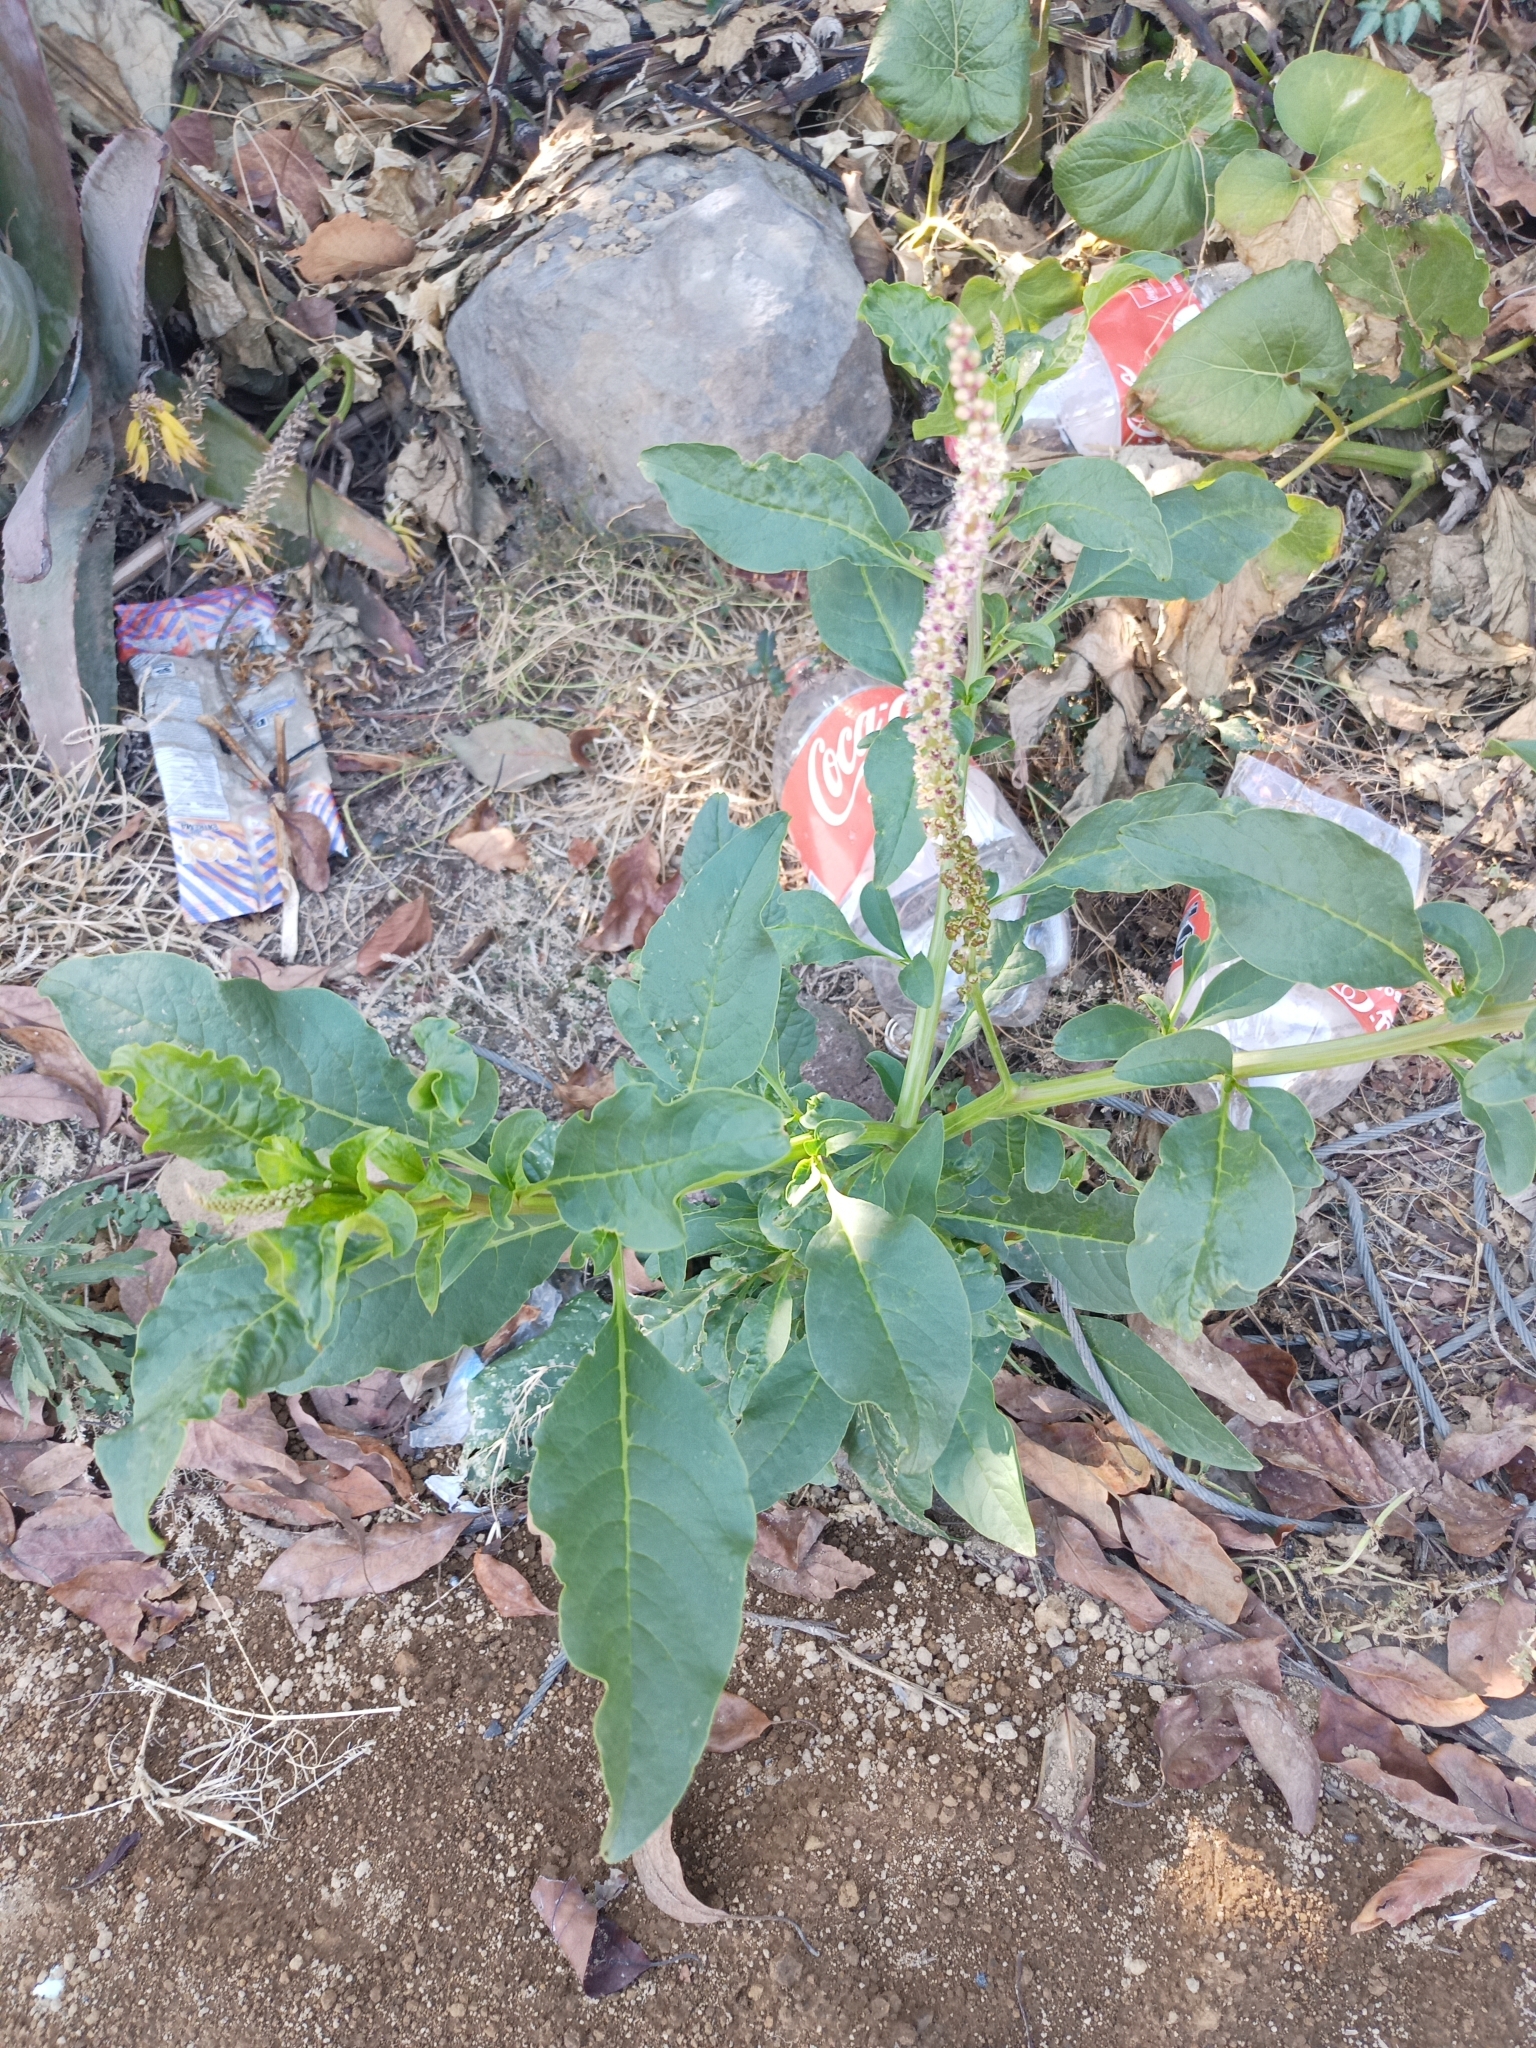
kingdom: Plantae
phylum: Tracheophyta
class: Magnoliopsida
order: Caryophyllales
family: Phytolaccaceae
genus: Phytolacca
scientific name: Phytolacca icosandra
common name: Button pokeweed
